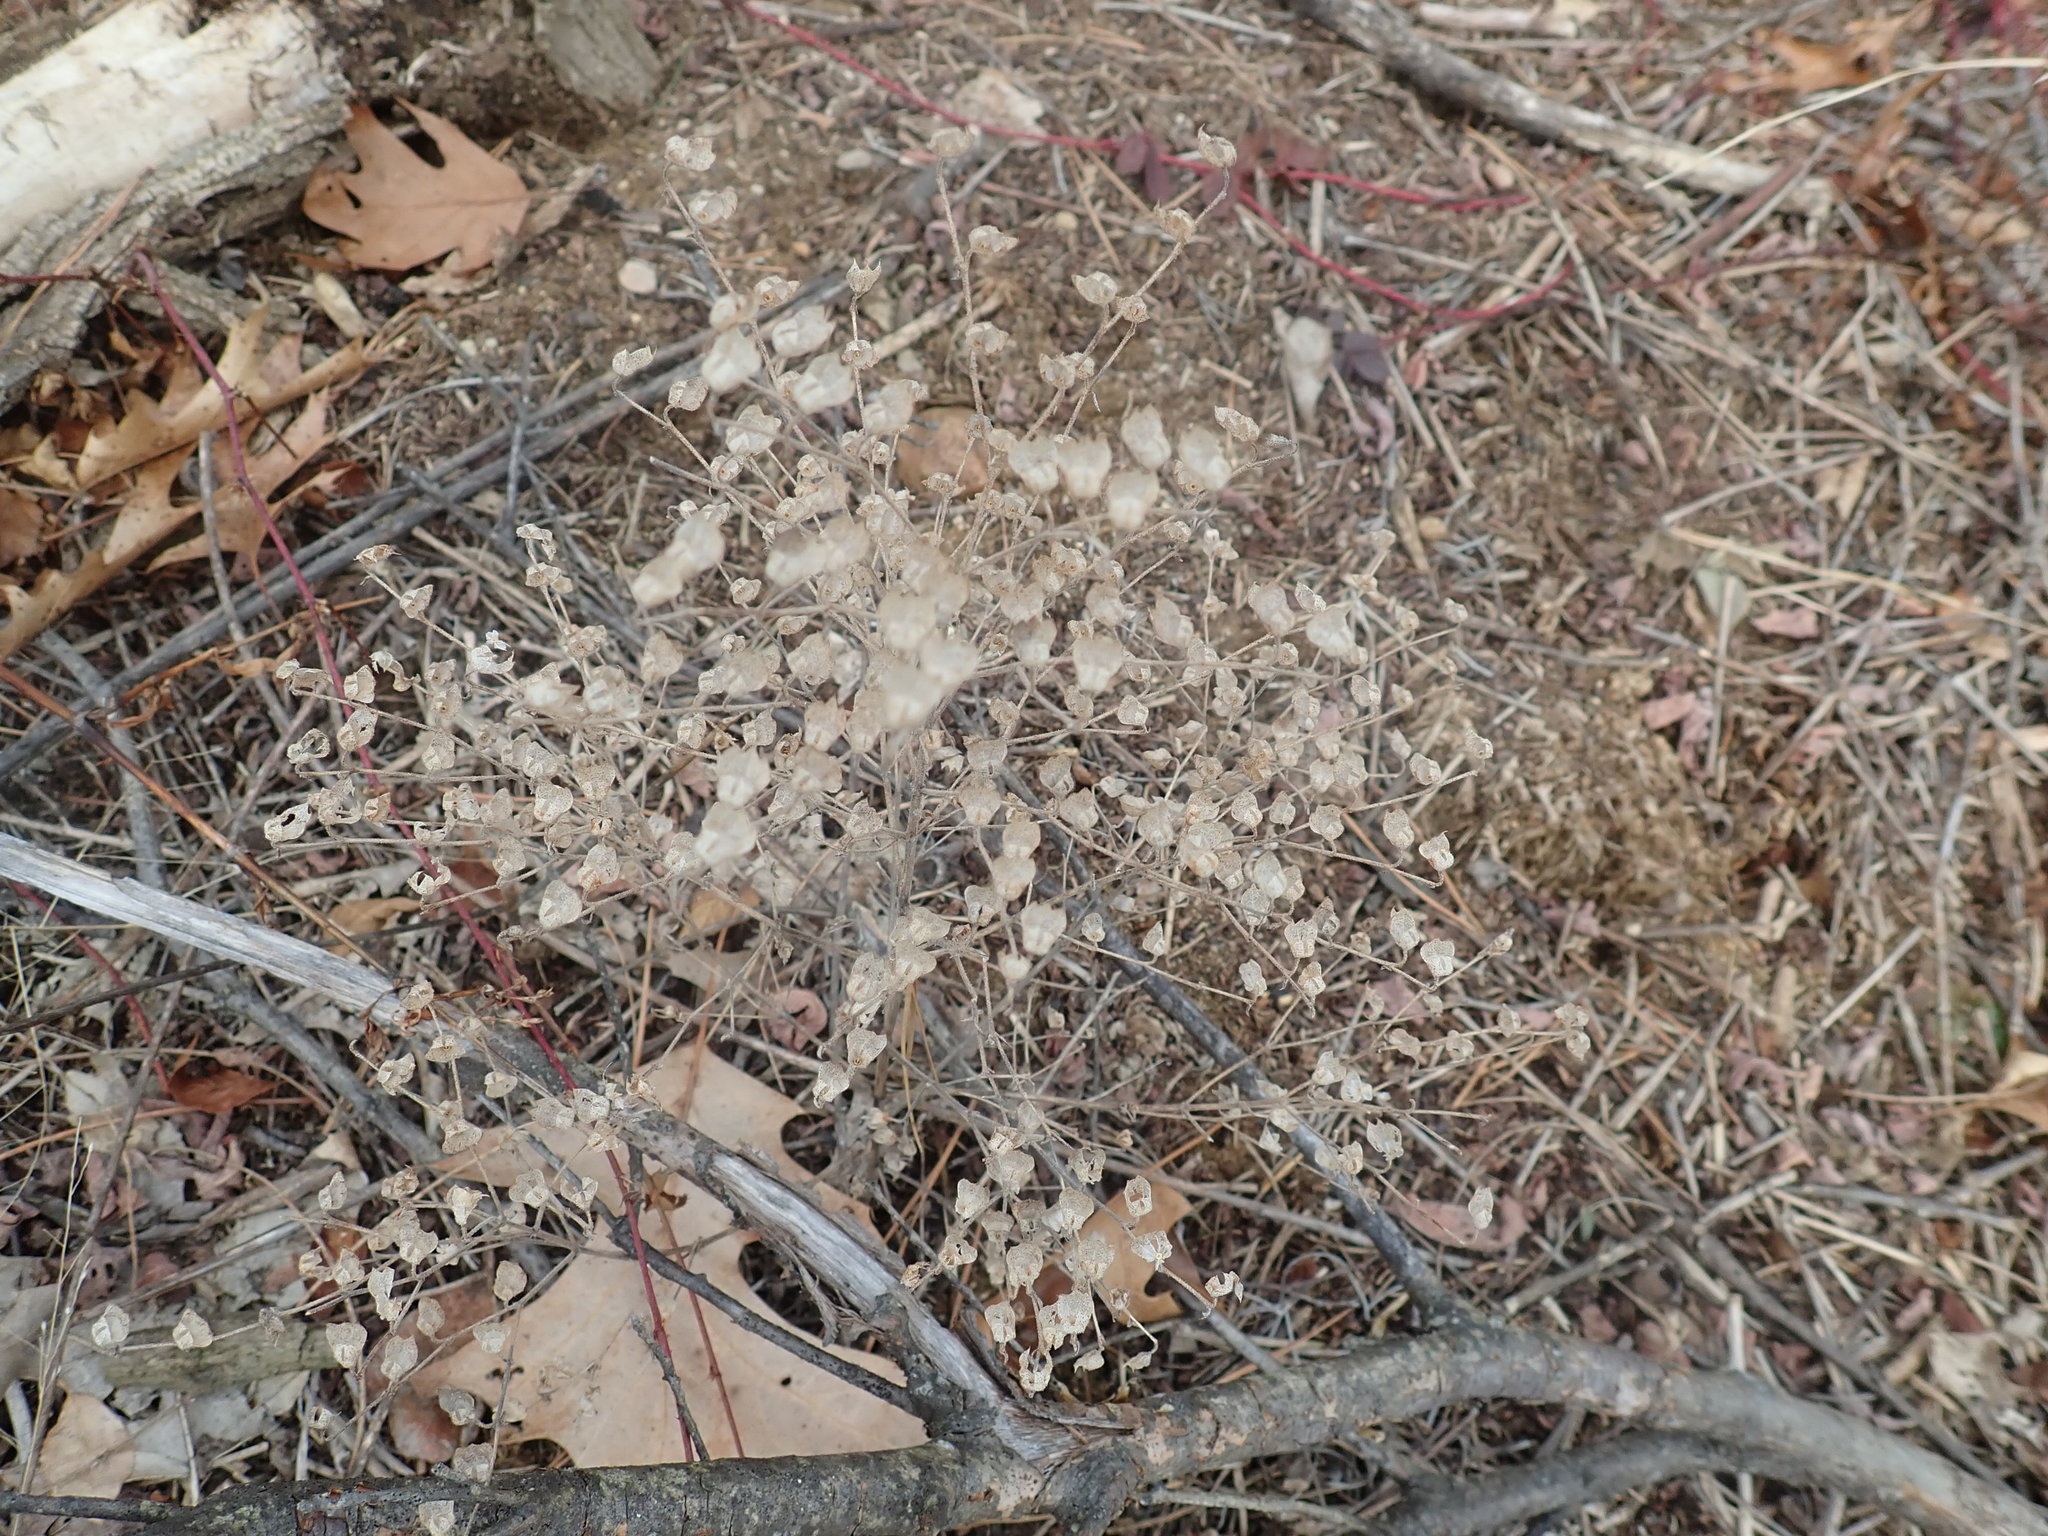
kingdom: Plantae
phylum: Tracheophyta
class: Magnoliopsida
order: Lamiales
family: Lamiaceae
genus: Trichostema
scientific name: Trichostema dichotomum
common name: Bastard pennyroyal
